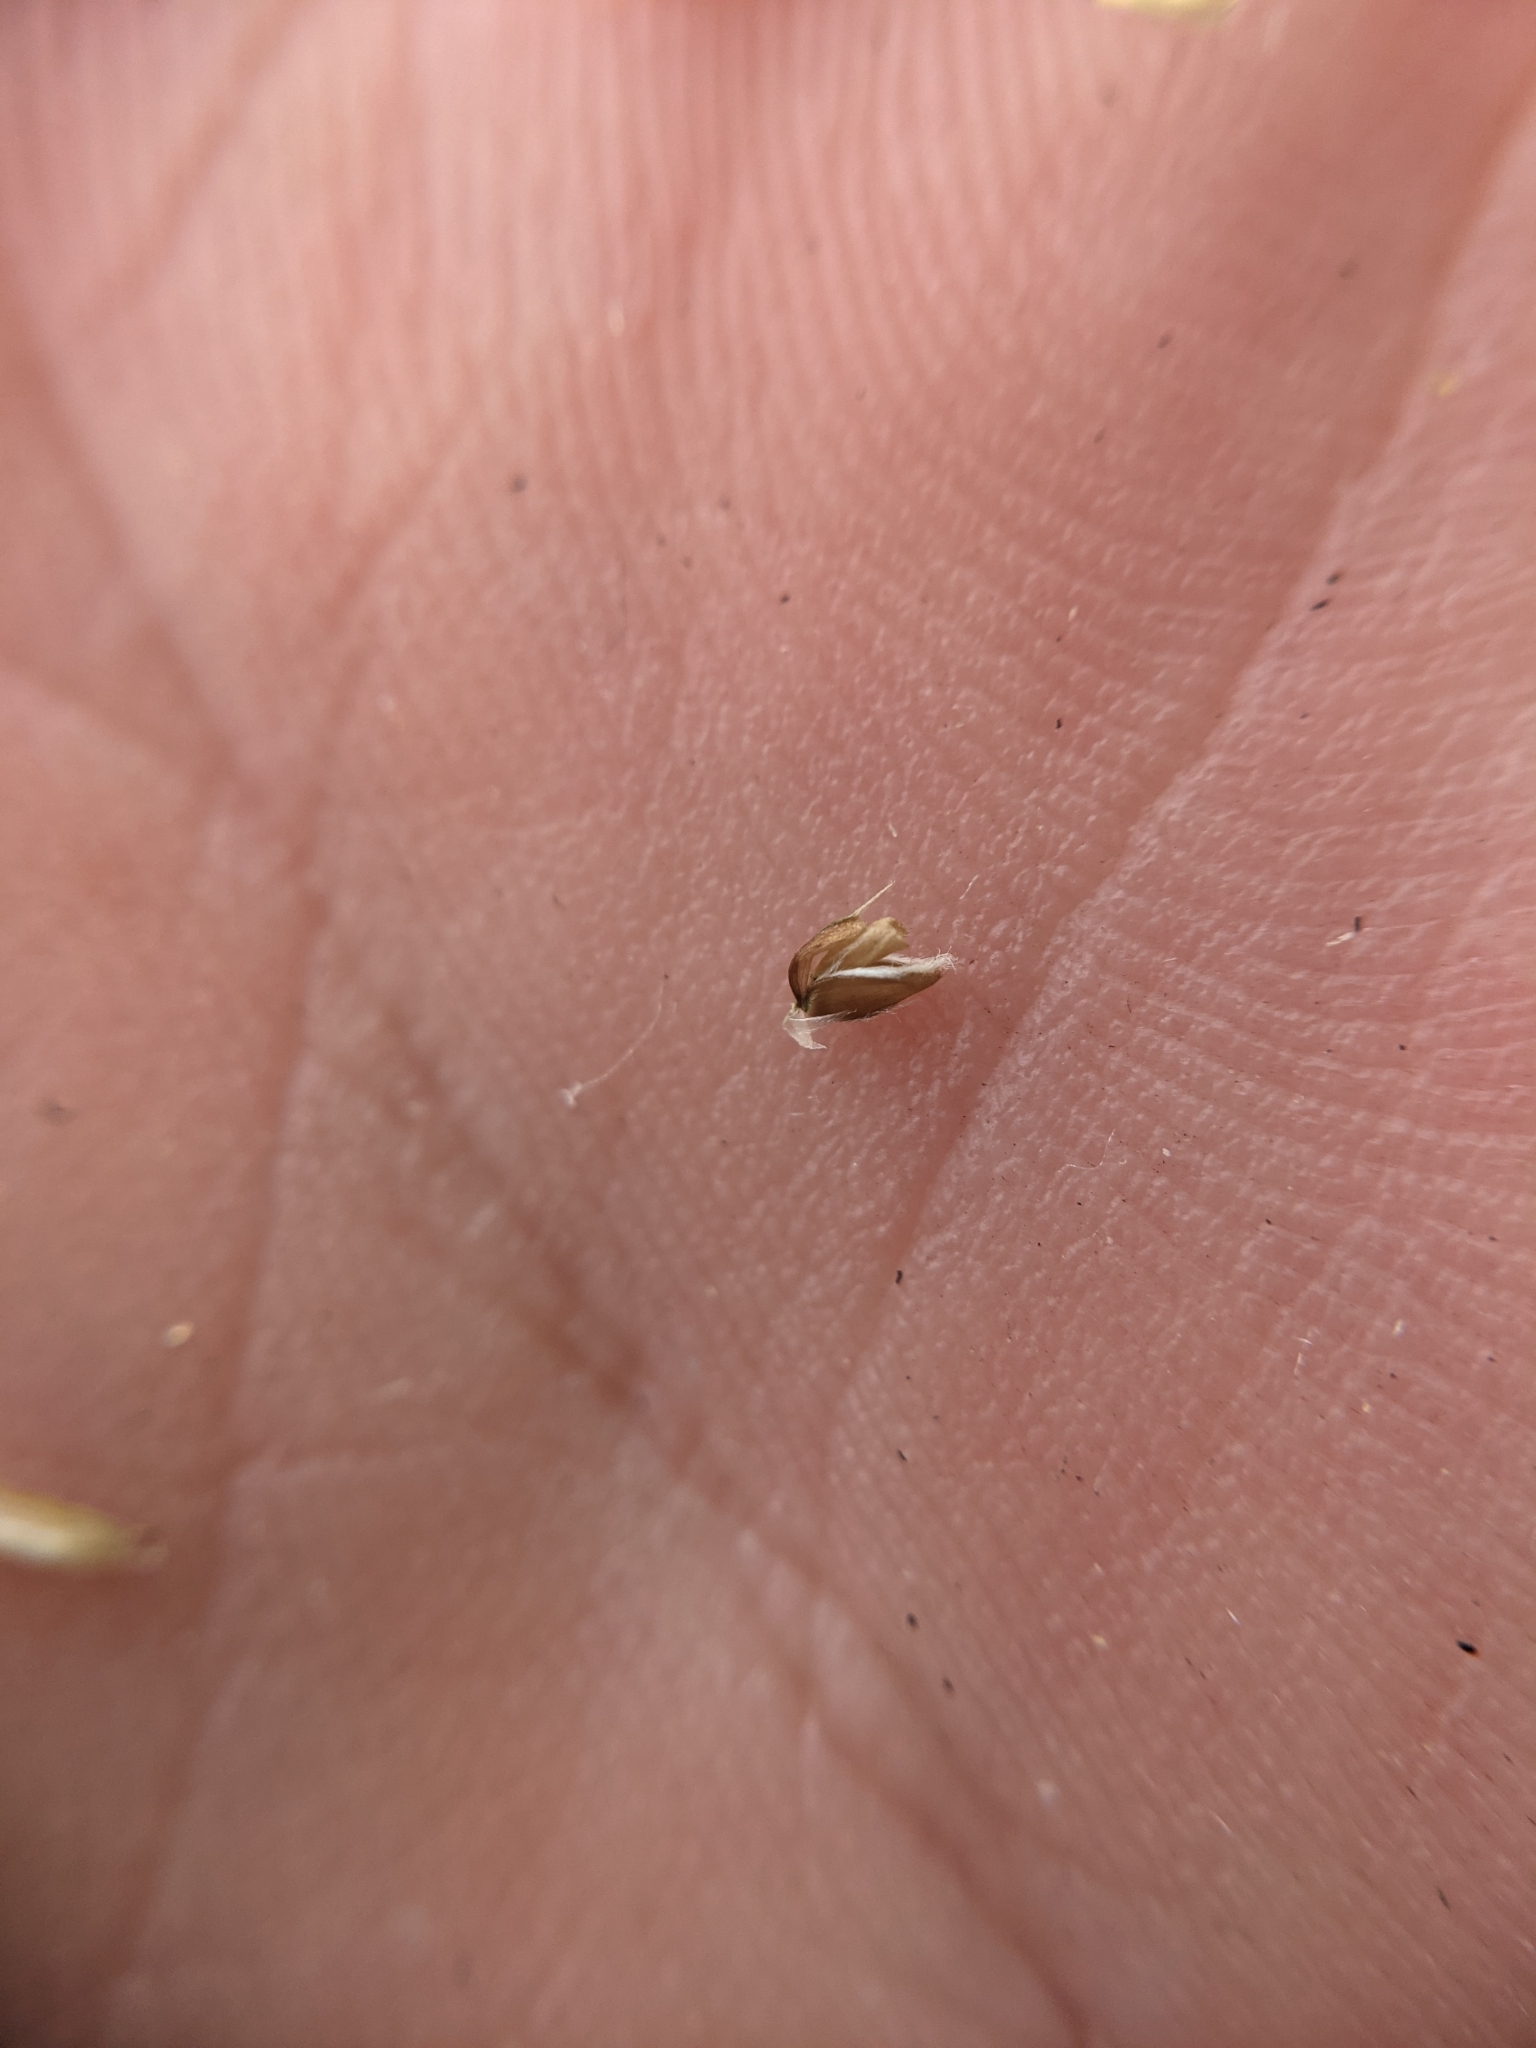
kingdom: Plantae
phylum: Tracheophyta
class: Liliopsida
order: Poales
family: Poaceae
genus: Eustachys
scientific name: Eustachys caribaea
